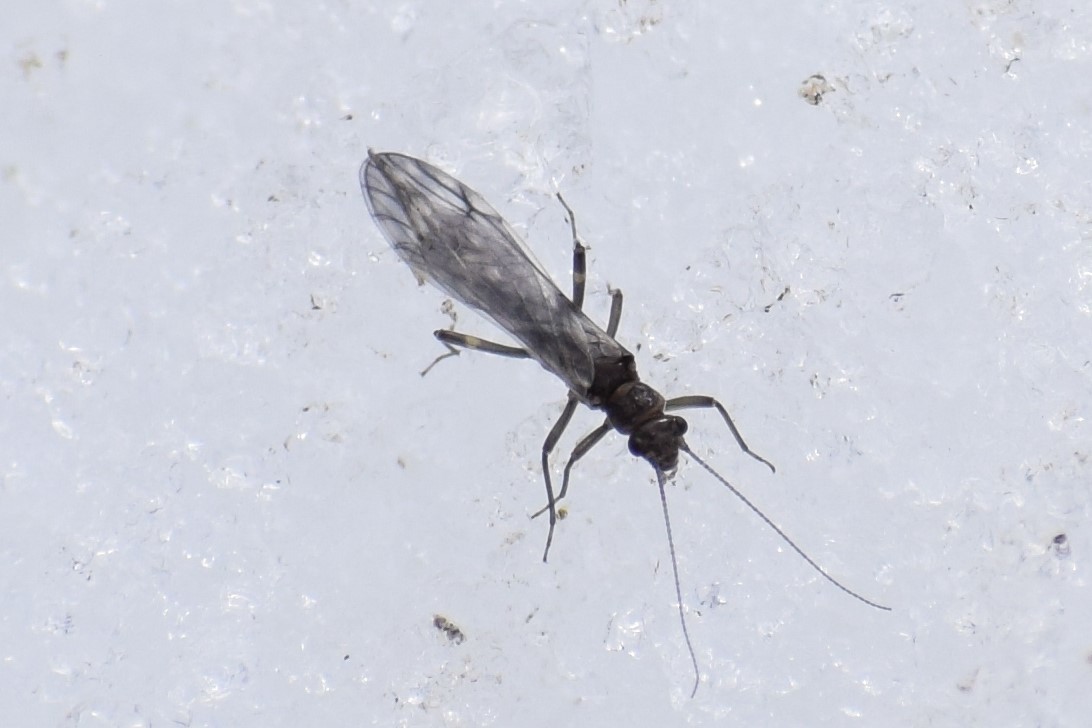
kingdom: Animalia
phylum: Arthropoda
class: Insecta
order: Plecoptera
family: Nemouridae
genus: Zapada
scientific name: Zapada cinctipes
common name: Common forestfly
